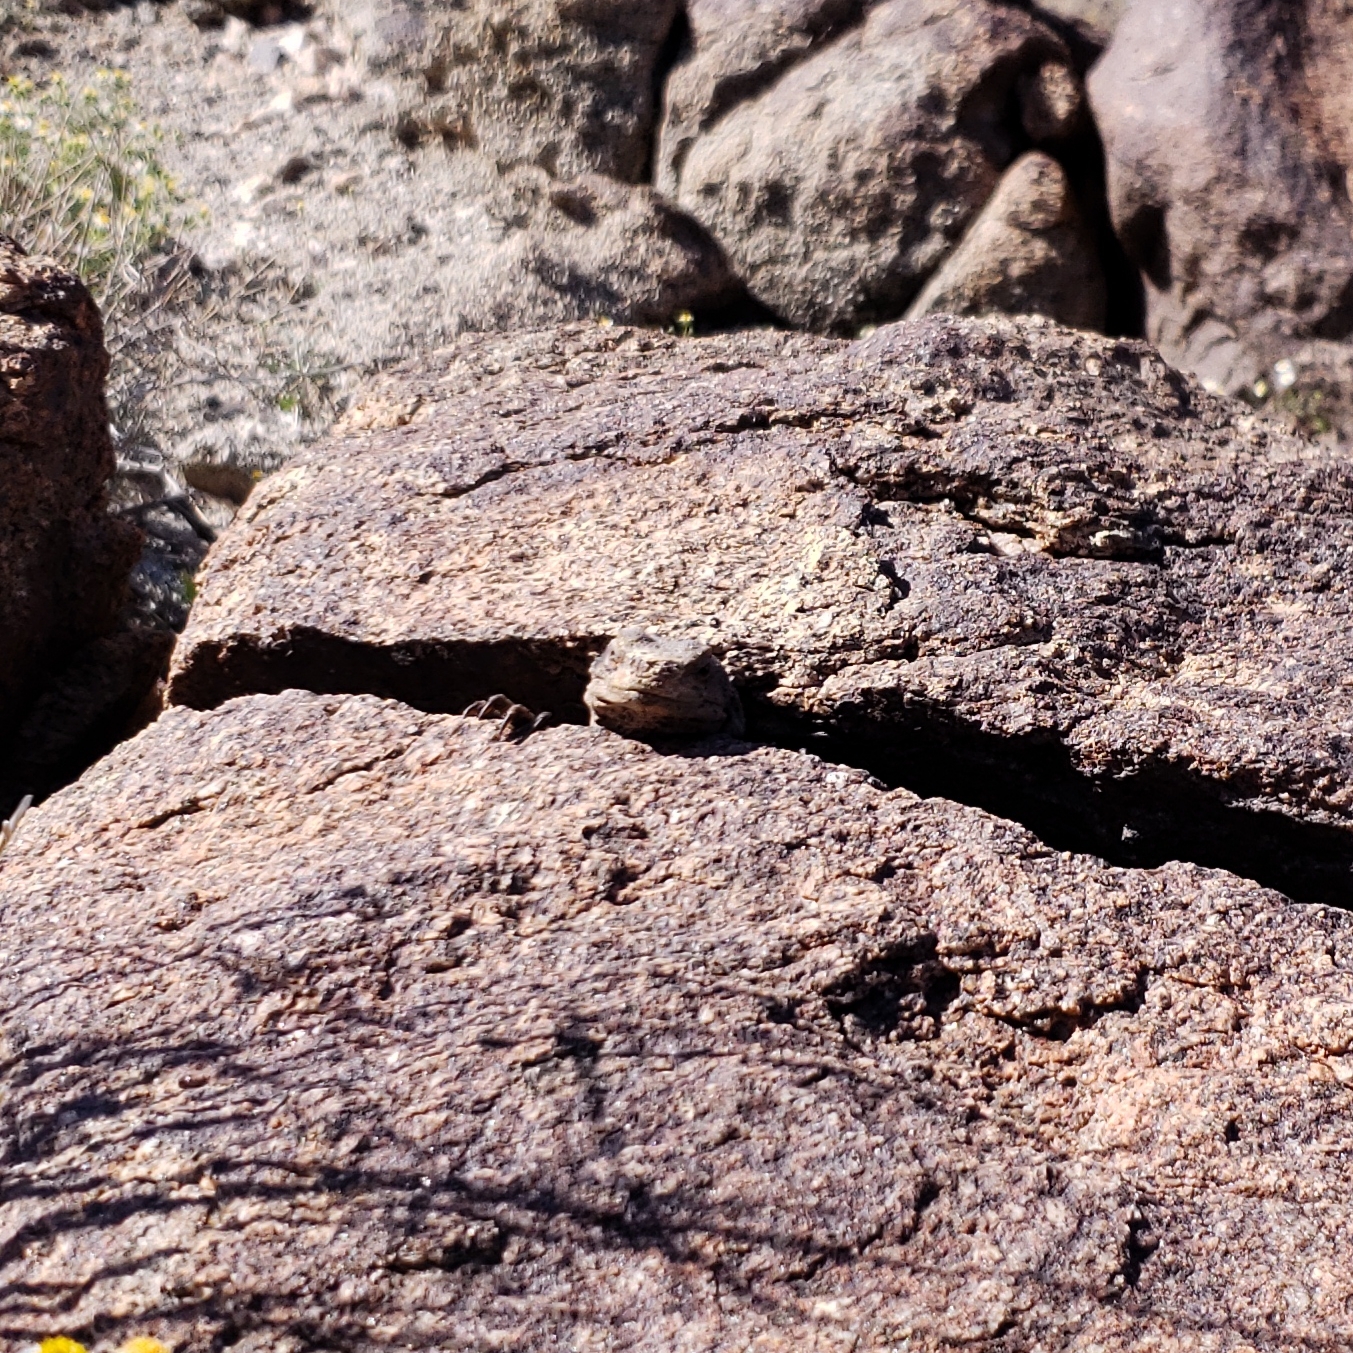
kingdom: Animalia
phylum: Chordata
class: Squamata
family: Iguanidae
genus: Sauromalus
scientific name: Sauromalus ater
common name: Northern chuckwalla
